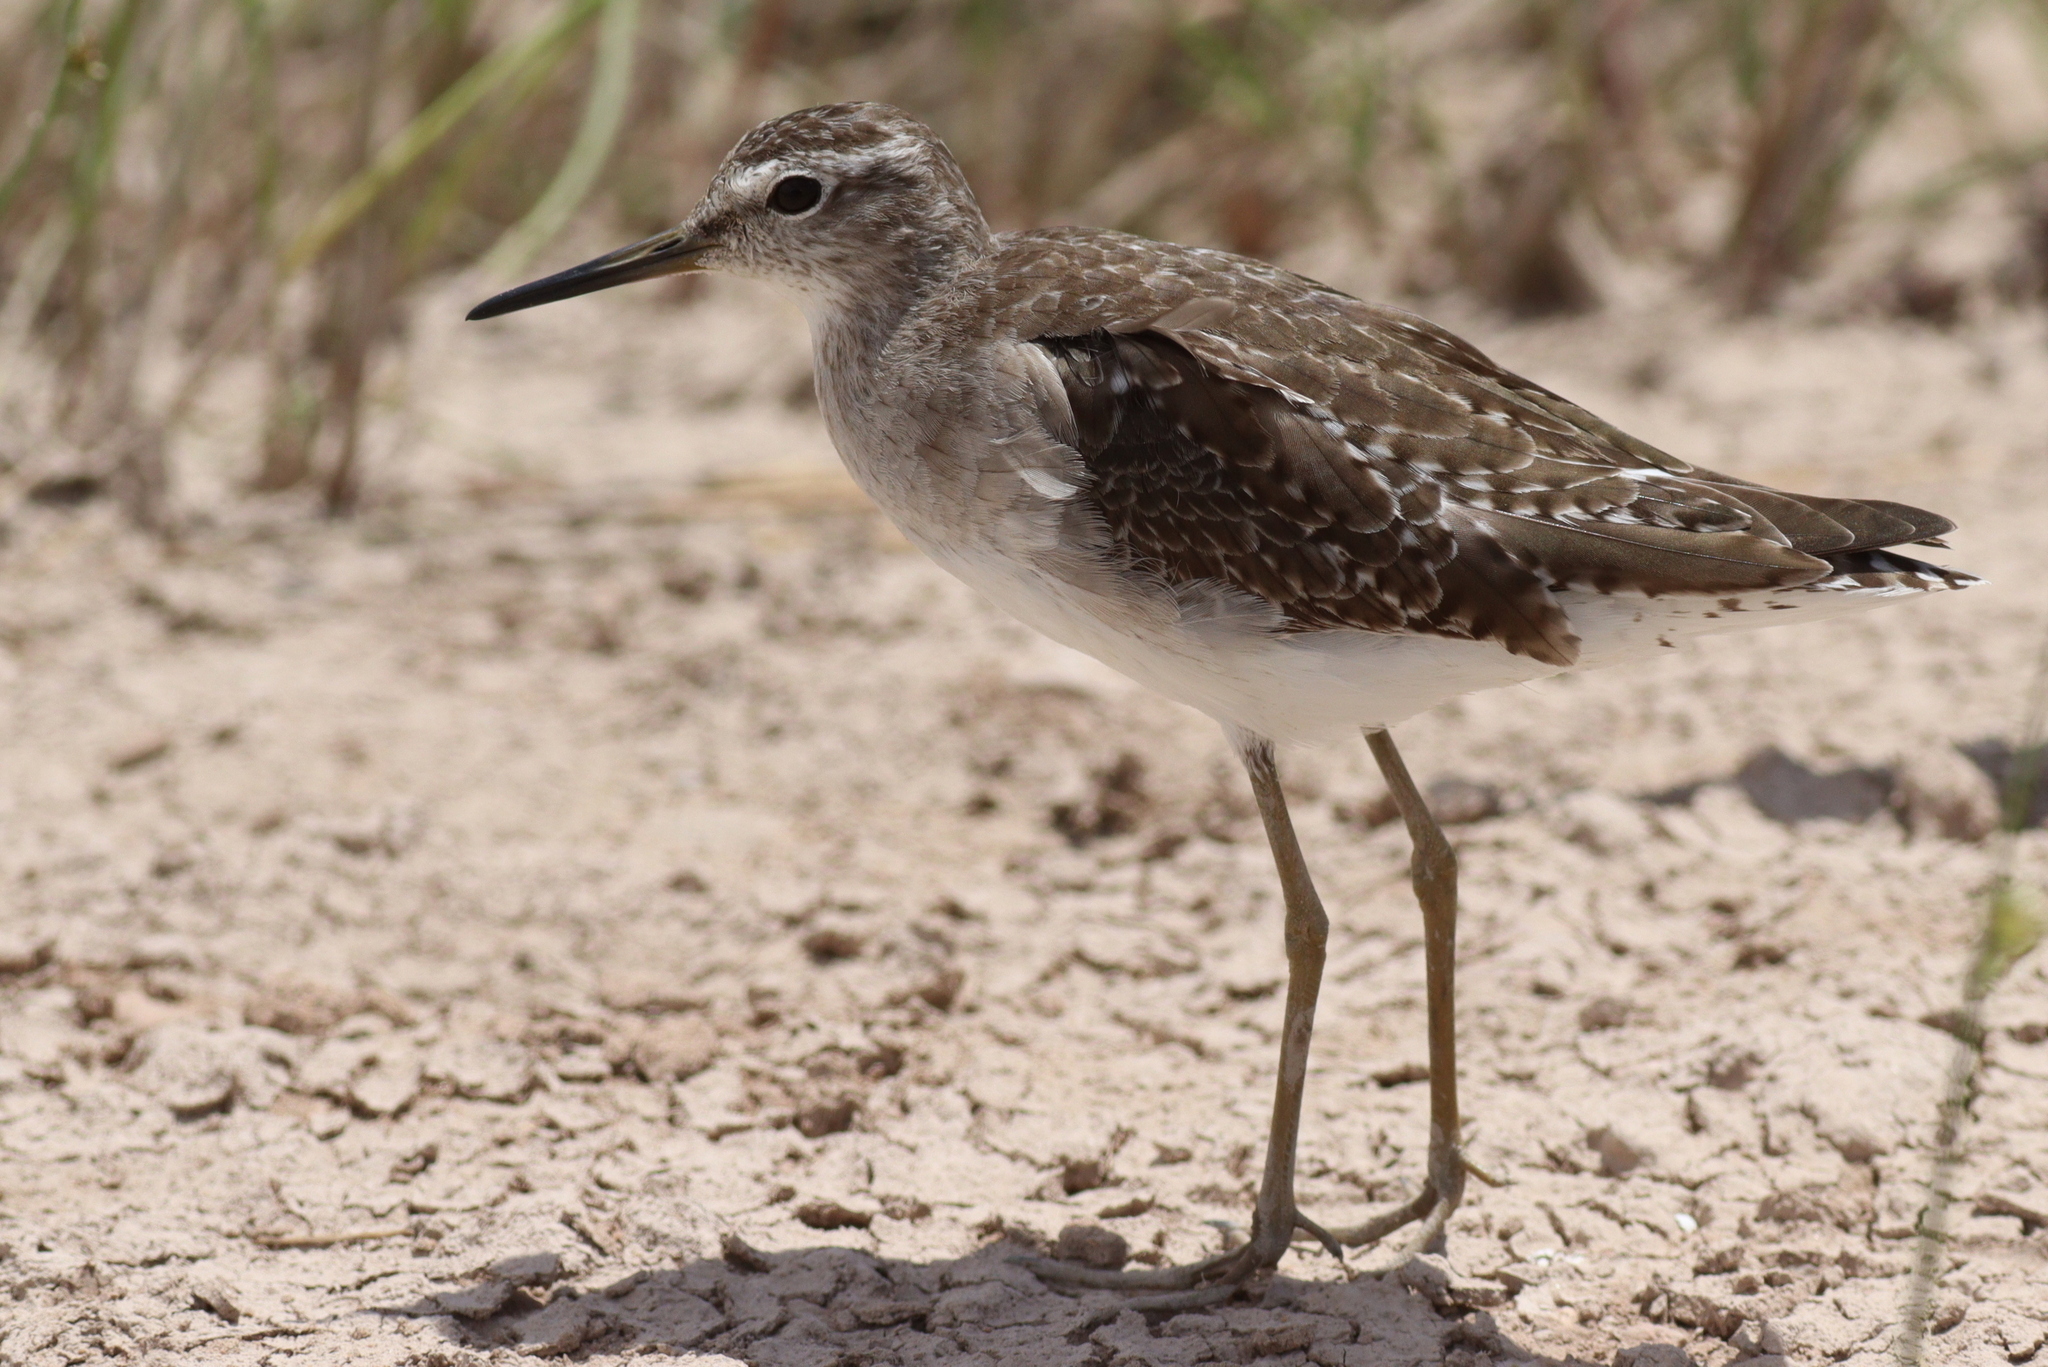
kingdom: Animalia
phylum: Chordata
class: Aves
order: Charadriiformes
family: Scolopacidae
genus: Tringa
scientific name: Tringa glareola
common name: Wood sandpiper
